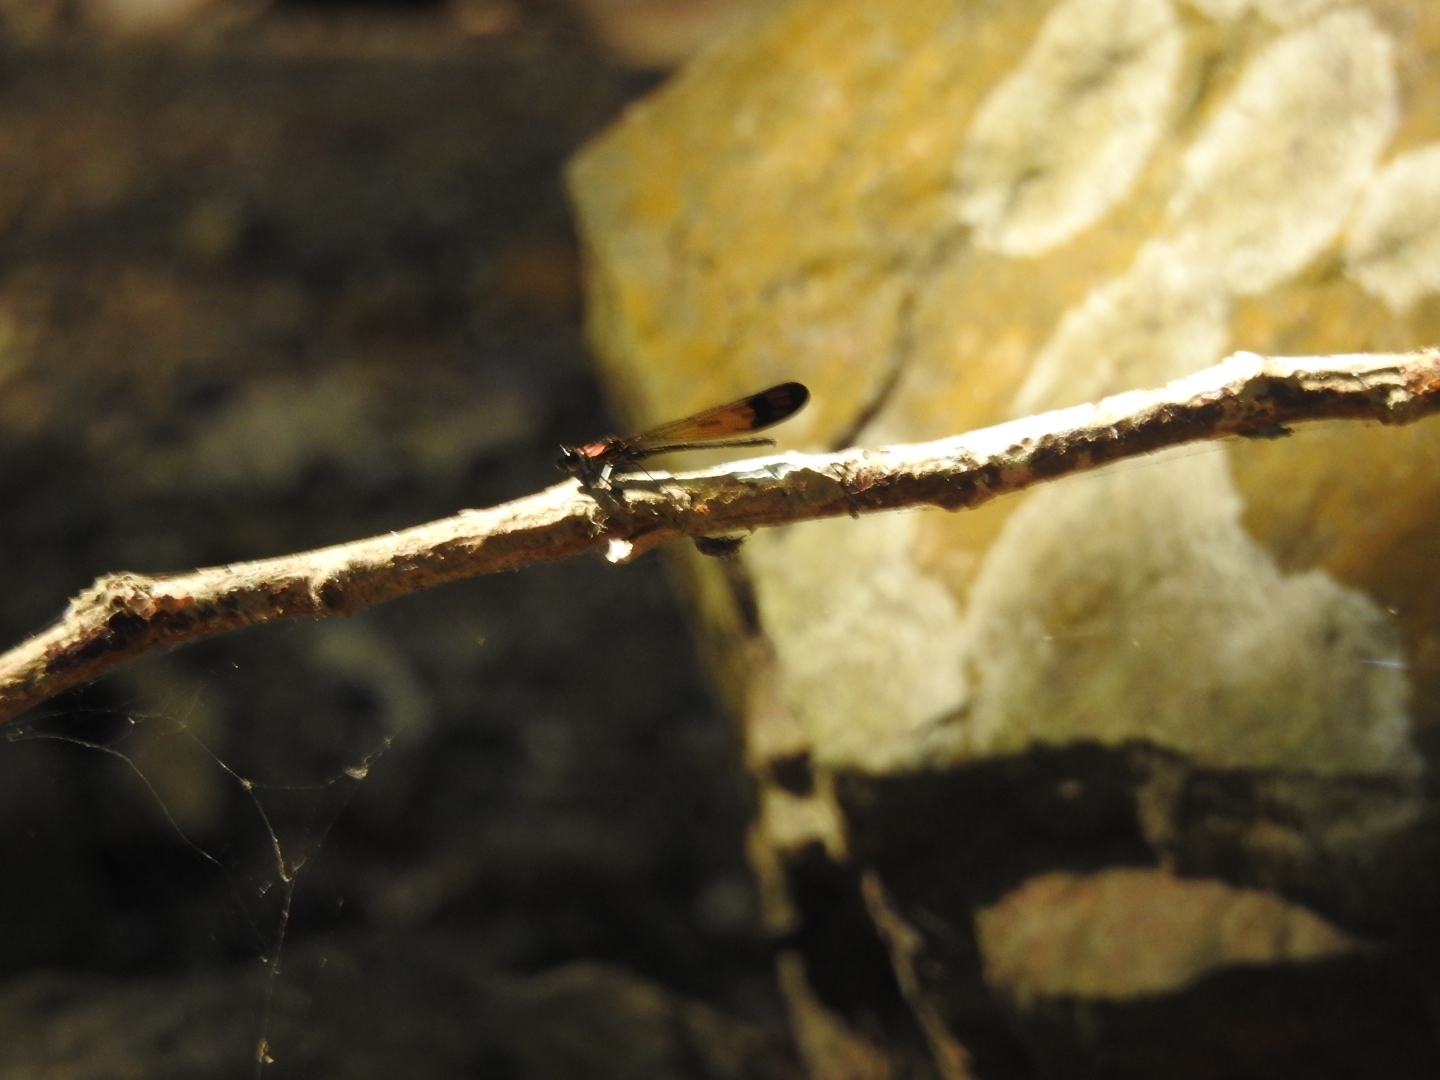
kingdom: Animalia
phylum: Arthropoda
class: Insecta
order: Odonata
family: Chlorocyphidae
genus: Heliocypha
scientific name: Heliocypha bisignata
